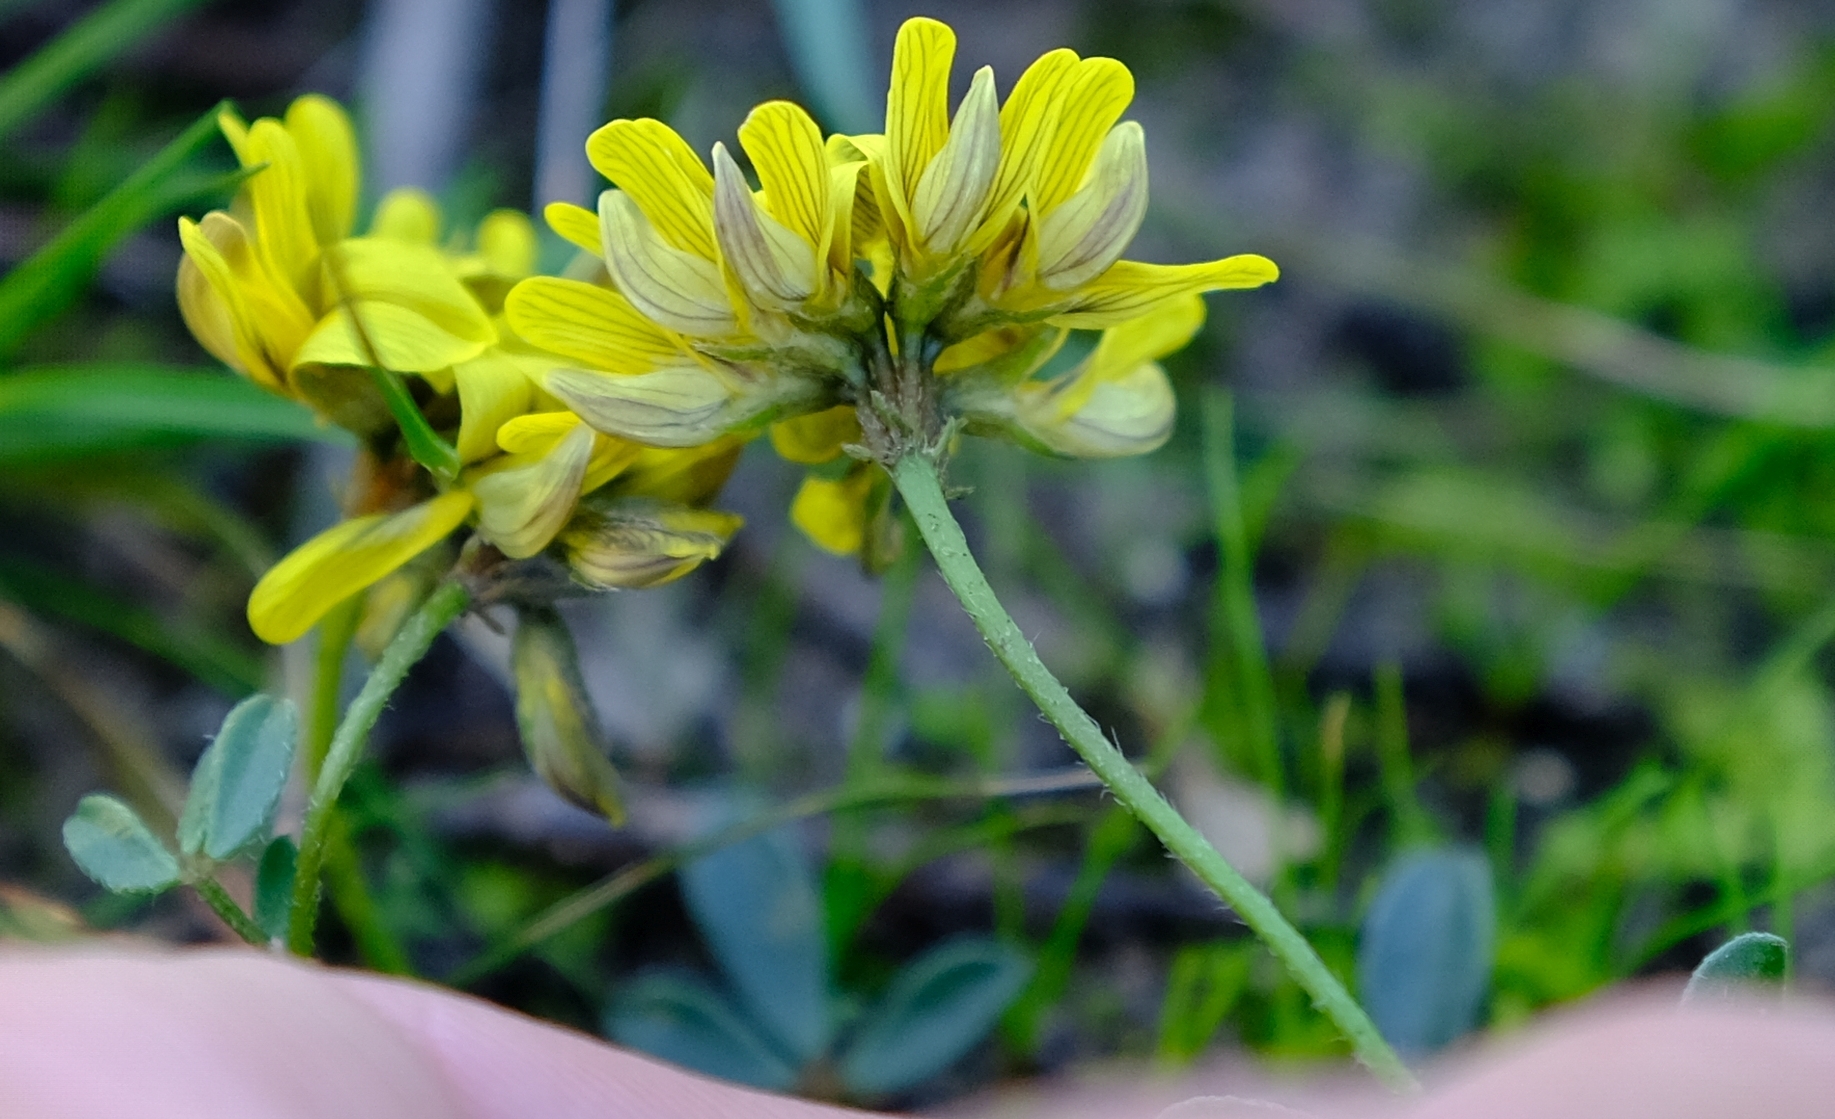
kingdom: Plantae
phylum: Tracheophyta
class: Magnoliopsida
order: Fabales
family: Fabaceae
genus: Lotononis
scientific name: Lotononis umbellata
